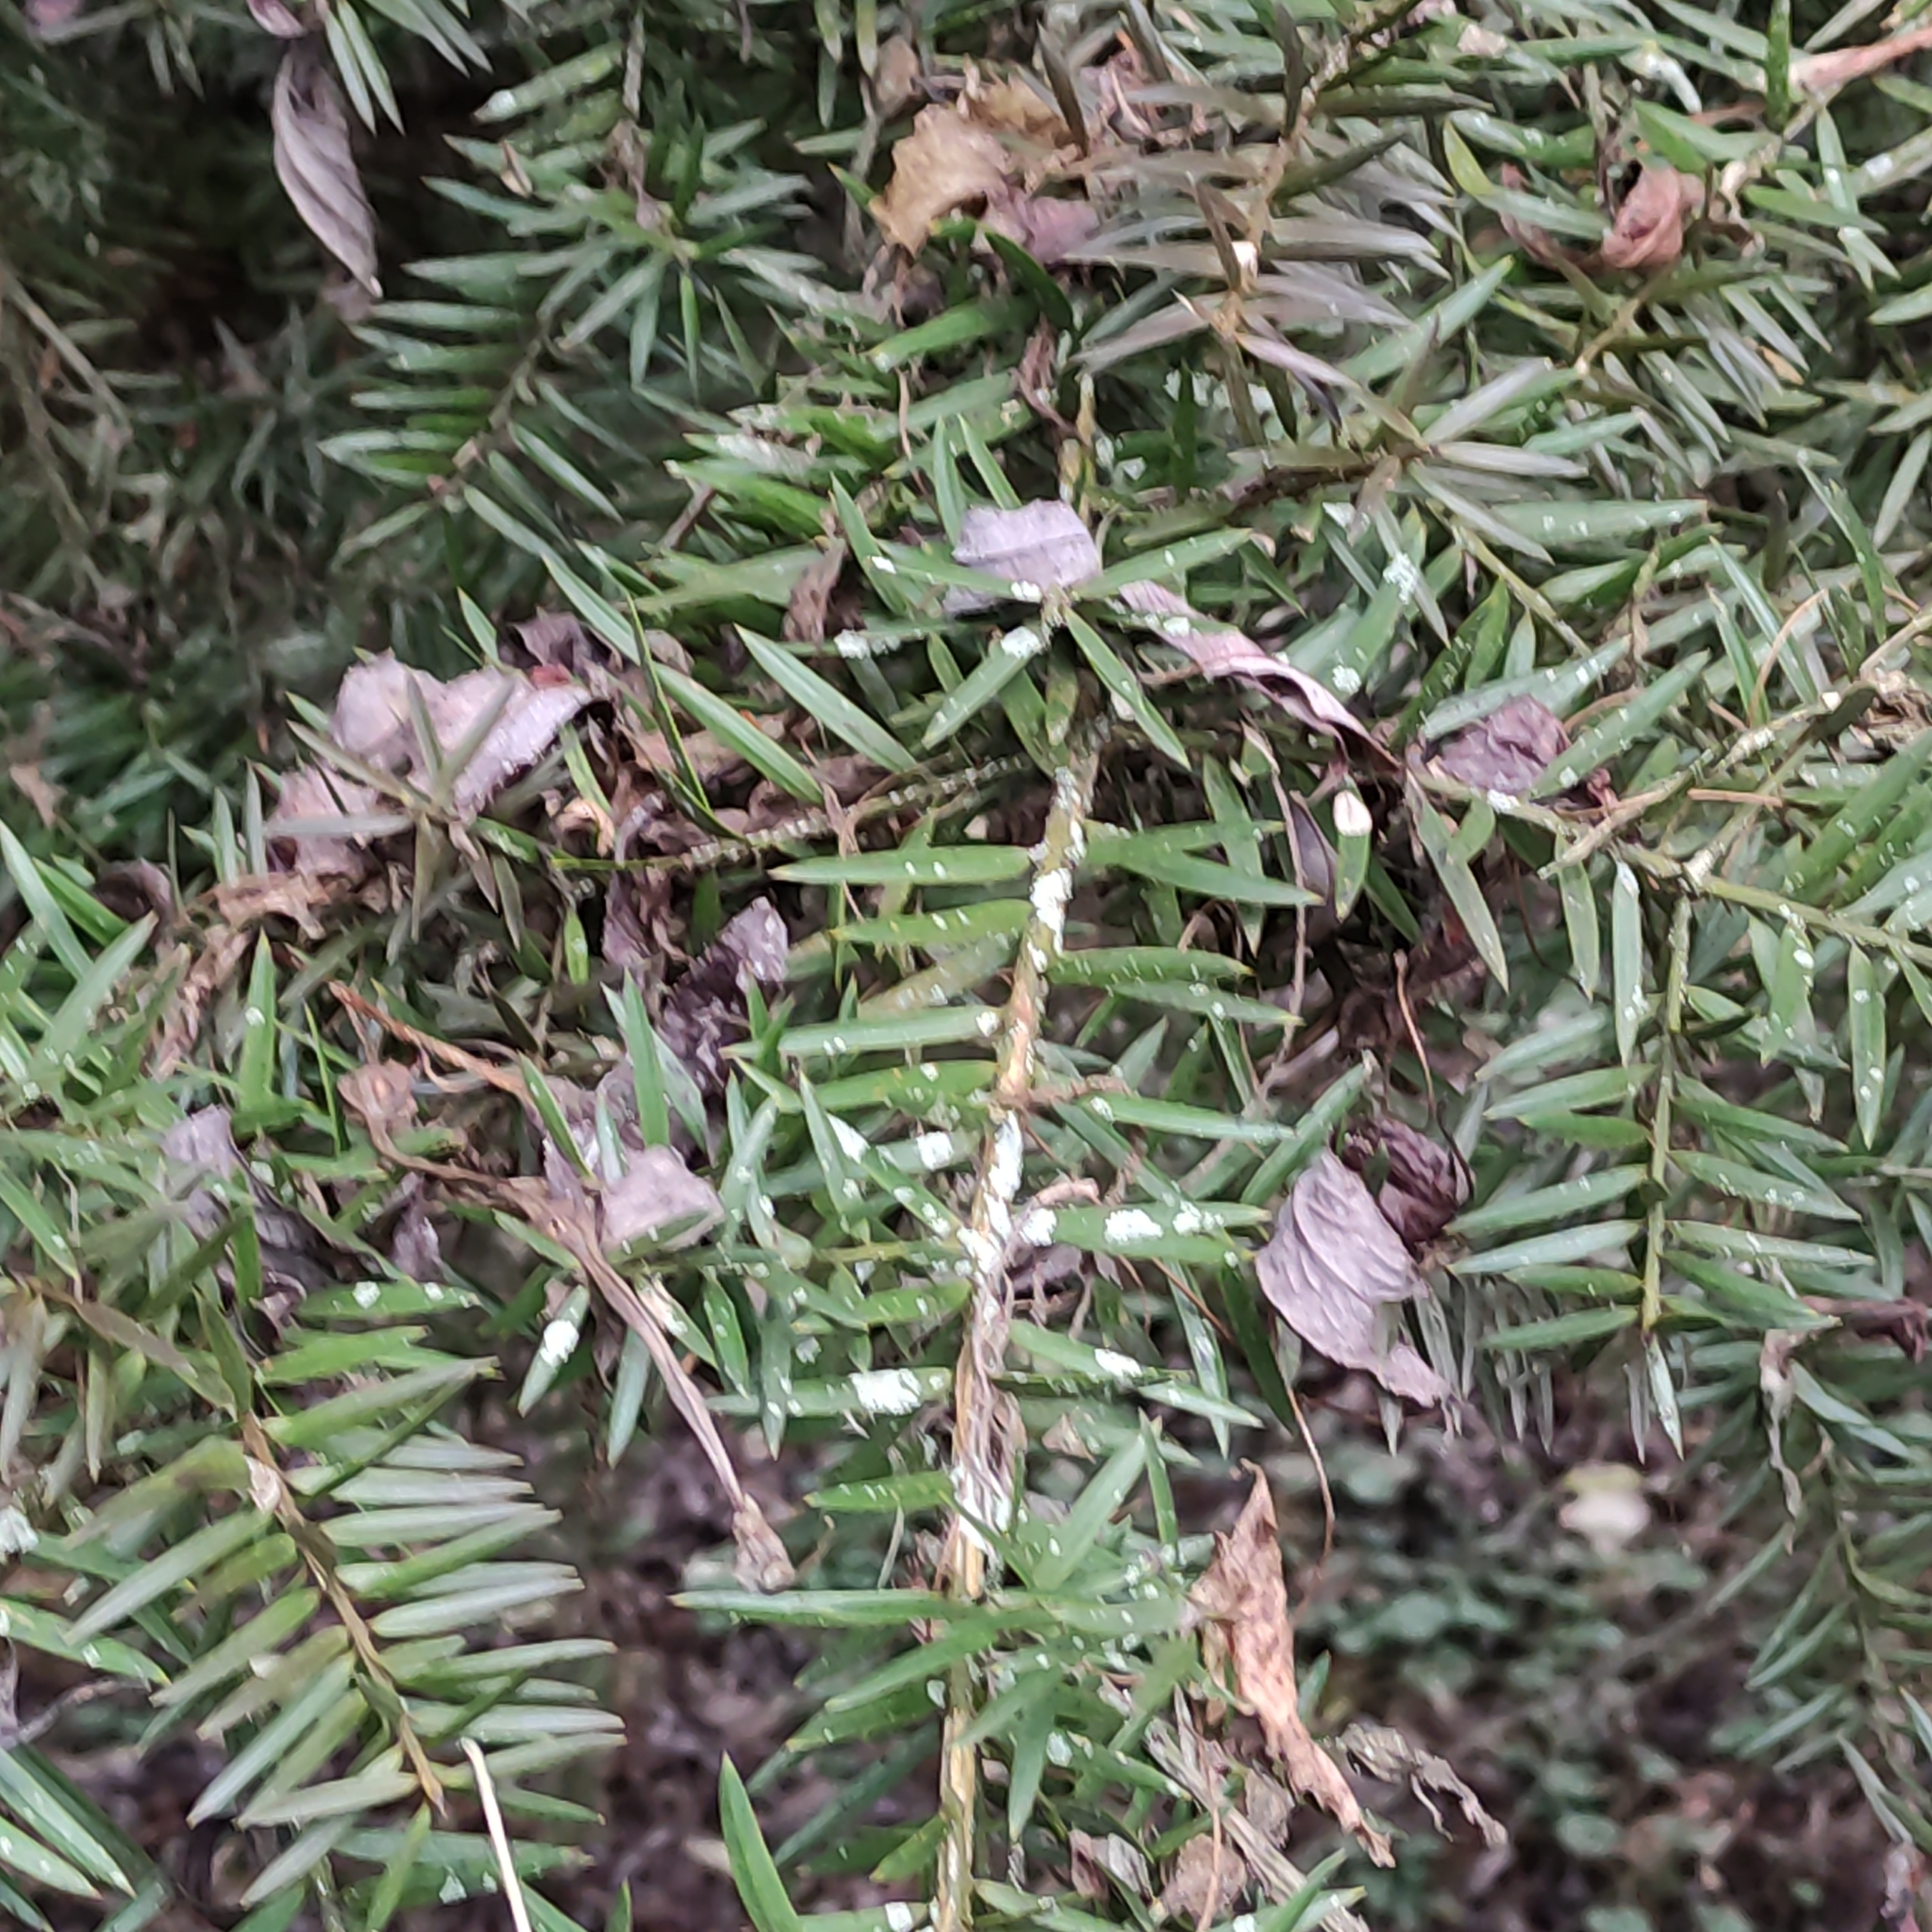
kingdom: Plantae
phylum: Tracheophyta
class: Pinopsida
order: Pinales
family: Podocarpaceae
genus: Podocarpus
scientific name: Podocarpus totara
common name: Totara
